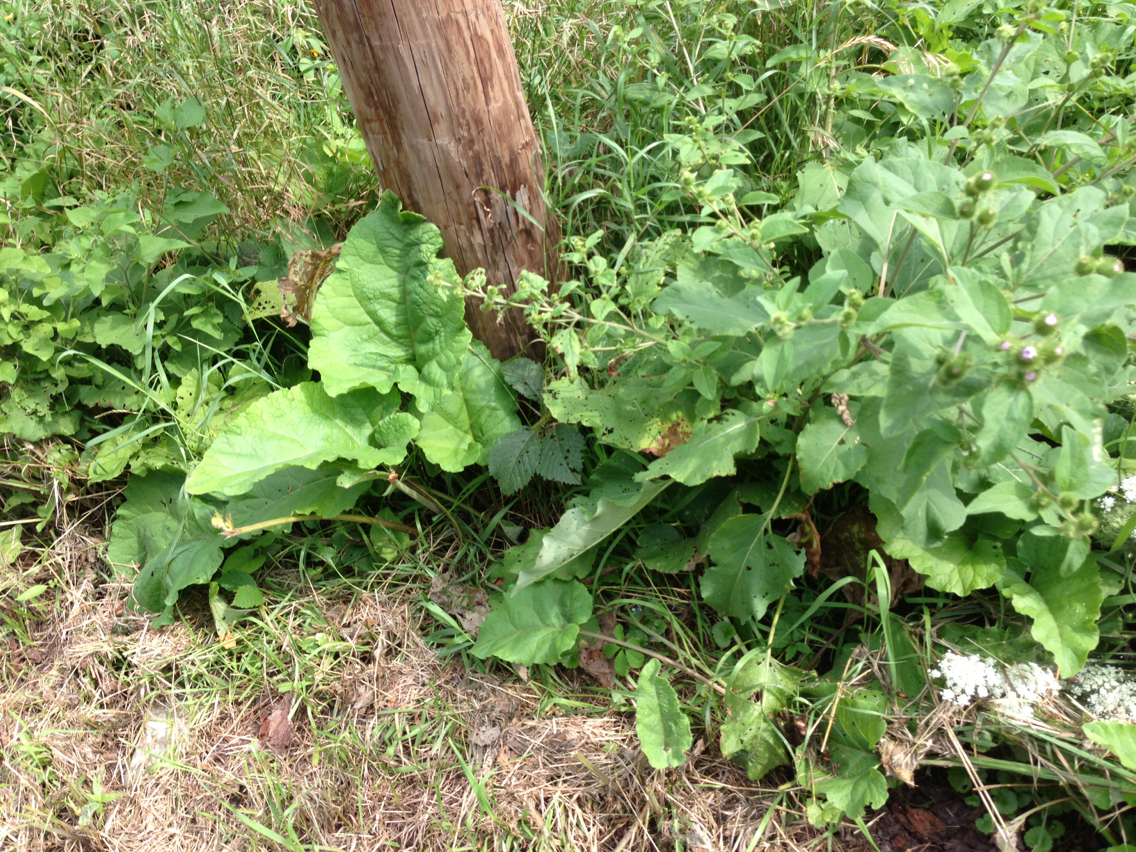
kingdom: Plantae
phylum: Tracheophyta
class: Magnoliopsida
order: Asterales
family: Asteraceae
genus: Arctium
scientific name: Arctium minus
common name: Lesser burdock
